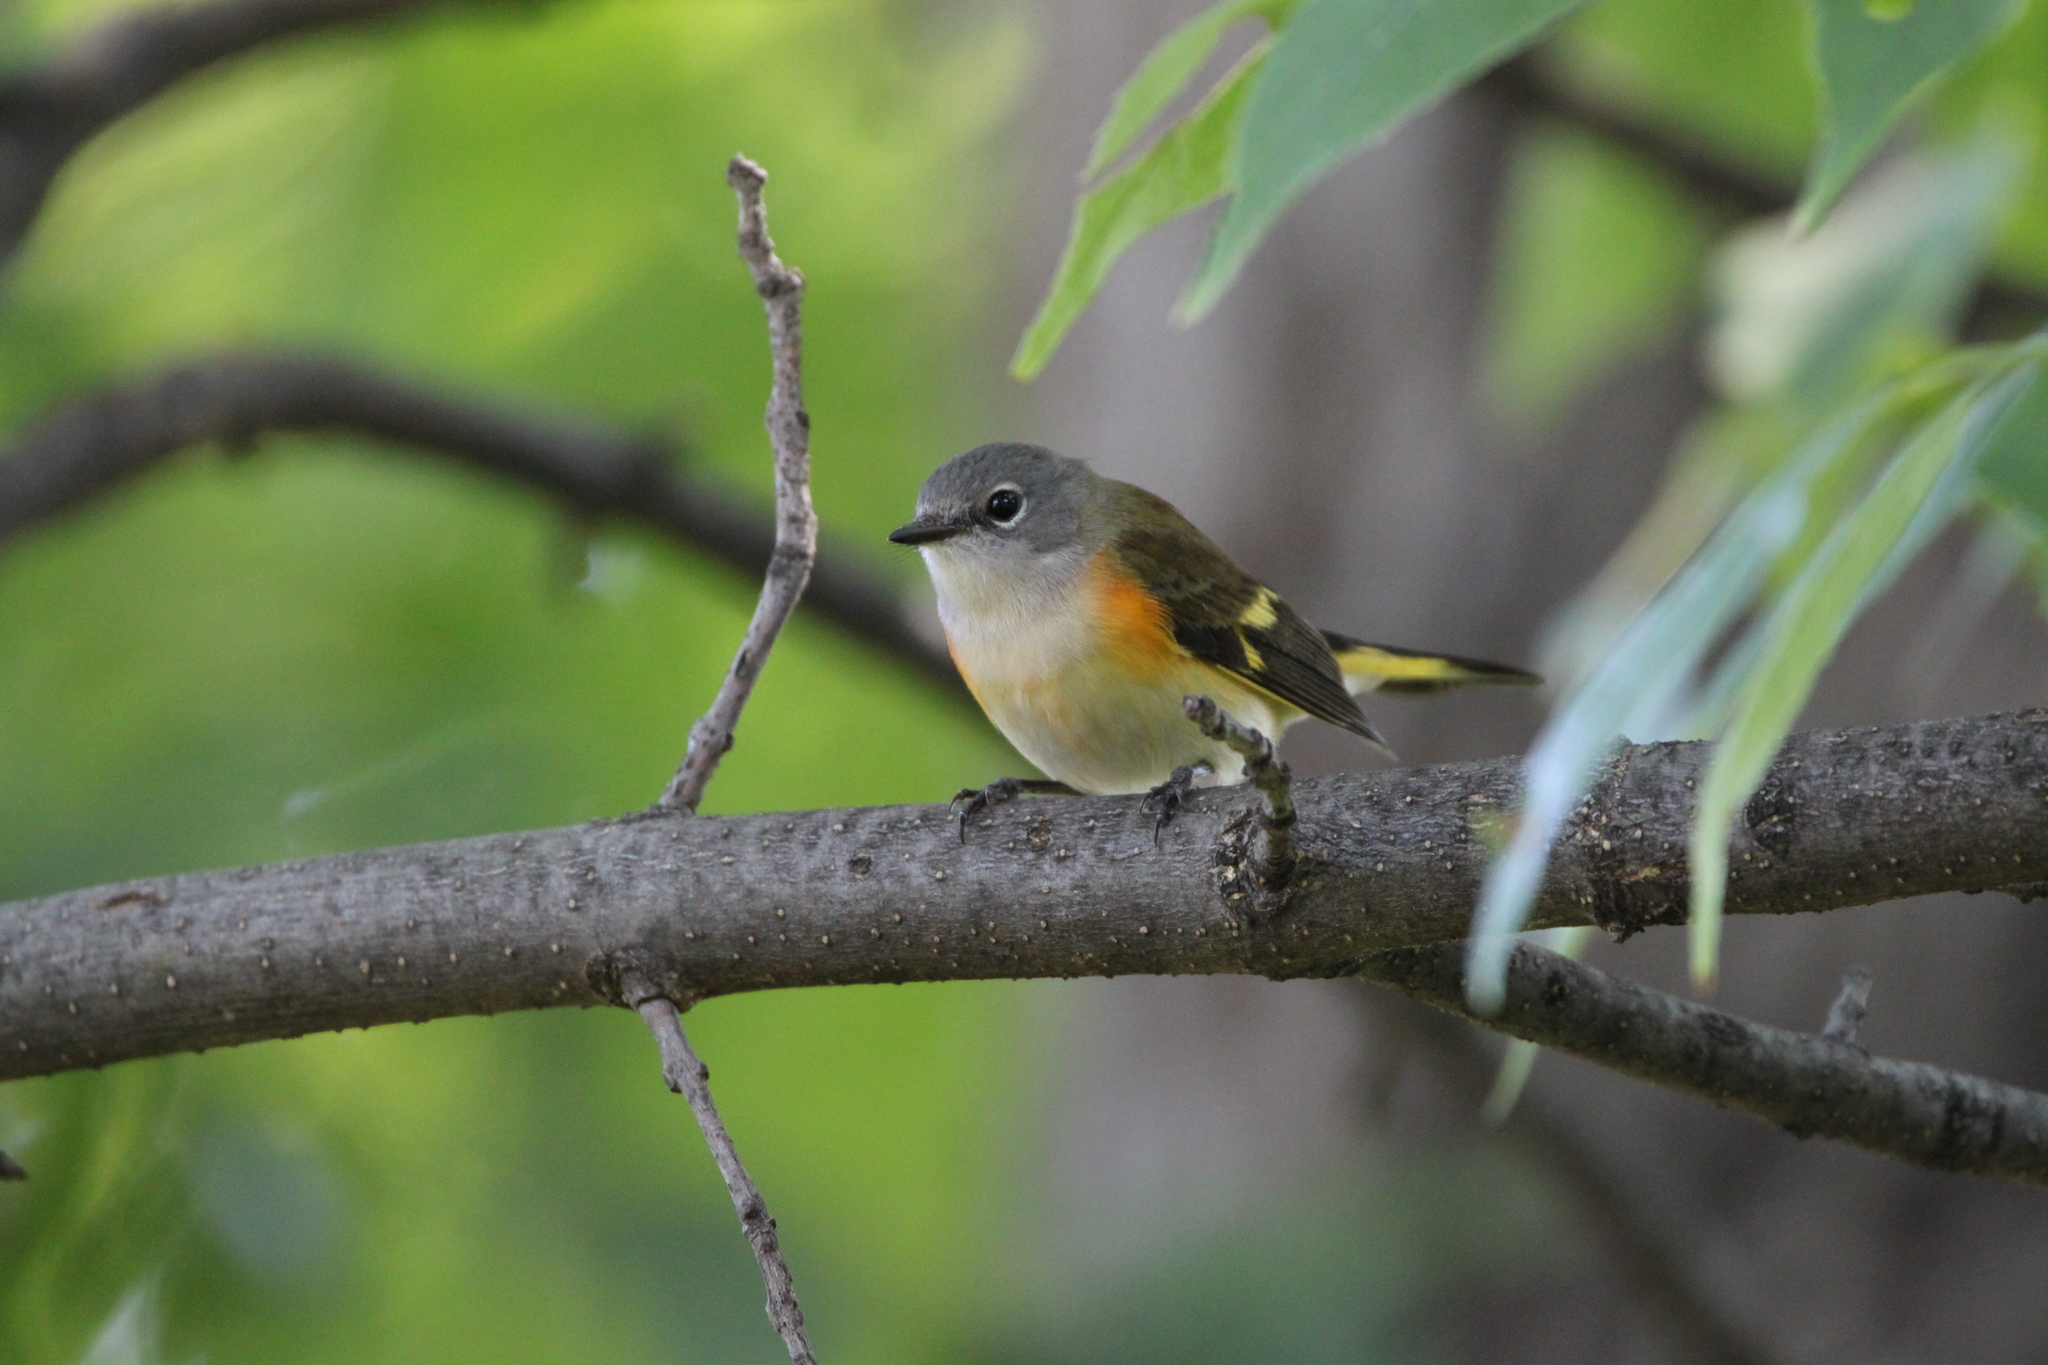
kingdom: Animalia
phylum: Chordata
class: Aves
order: Passeriformes
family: Parulidae
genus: Setophaga
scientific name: Setophaga ruticilla
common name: American redstart
